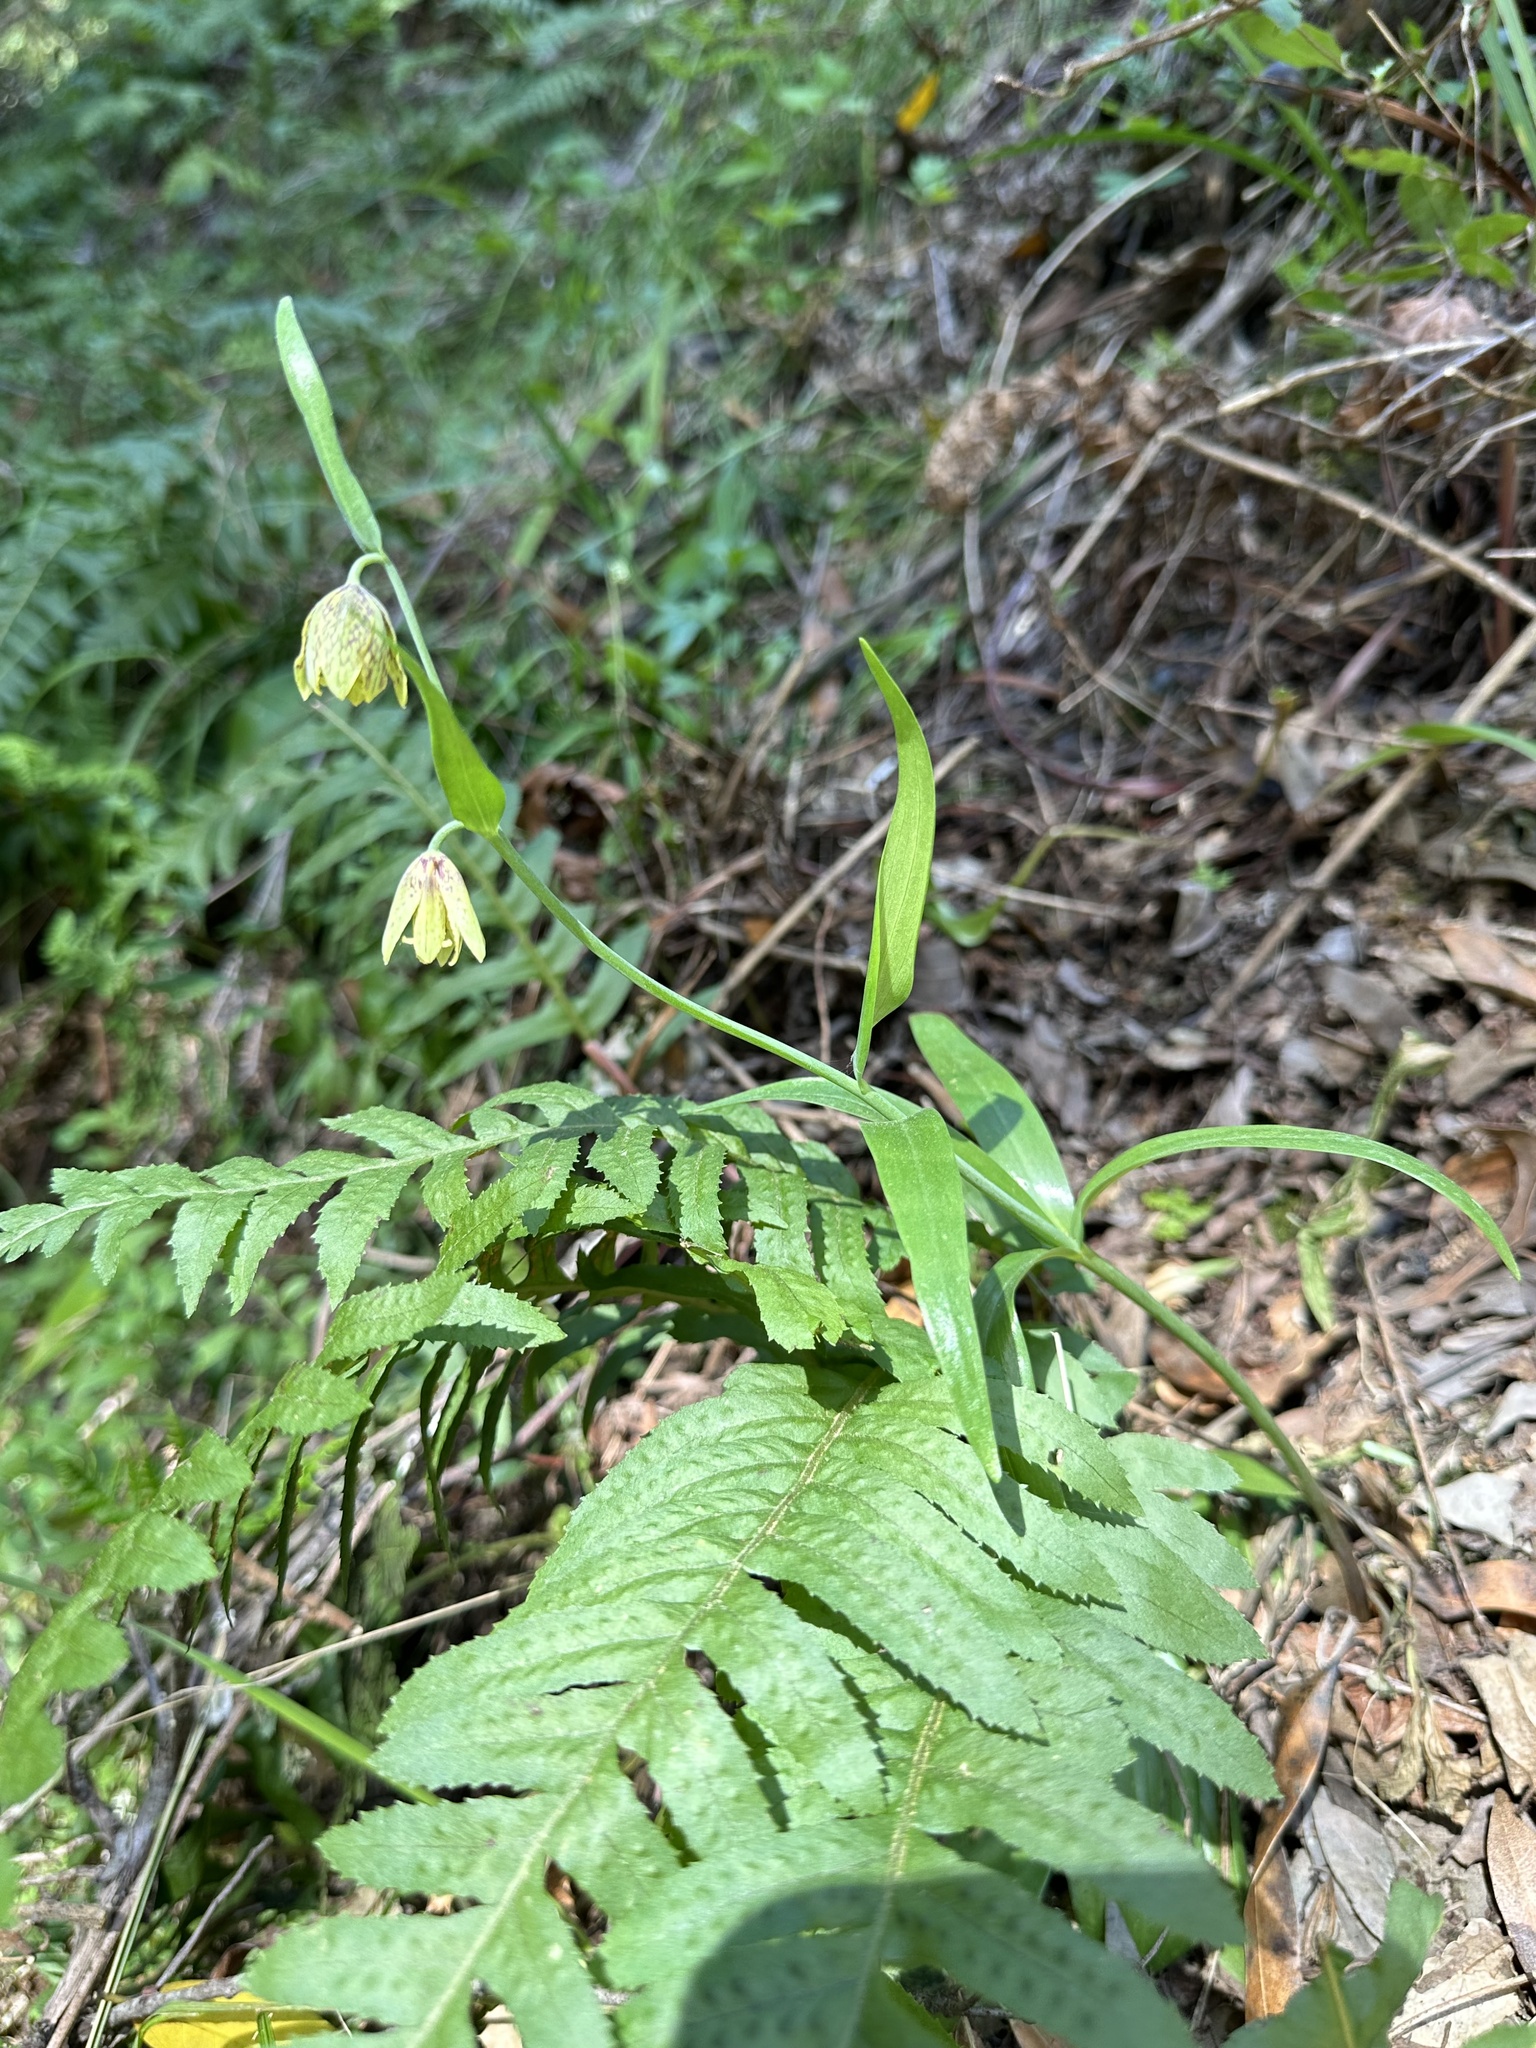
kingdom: Plantae
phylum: Tracheophyta
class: Liliopsida
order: Liliales
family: Liliaceae
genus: Fritillaria
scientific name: Fritillaria affinis
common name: Ojai fritillary
